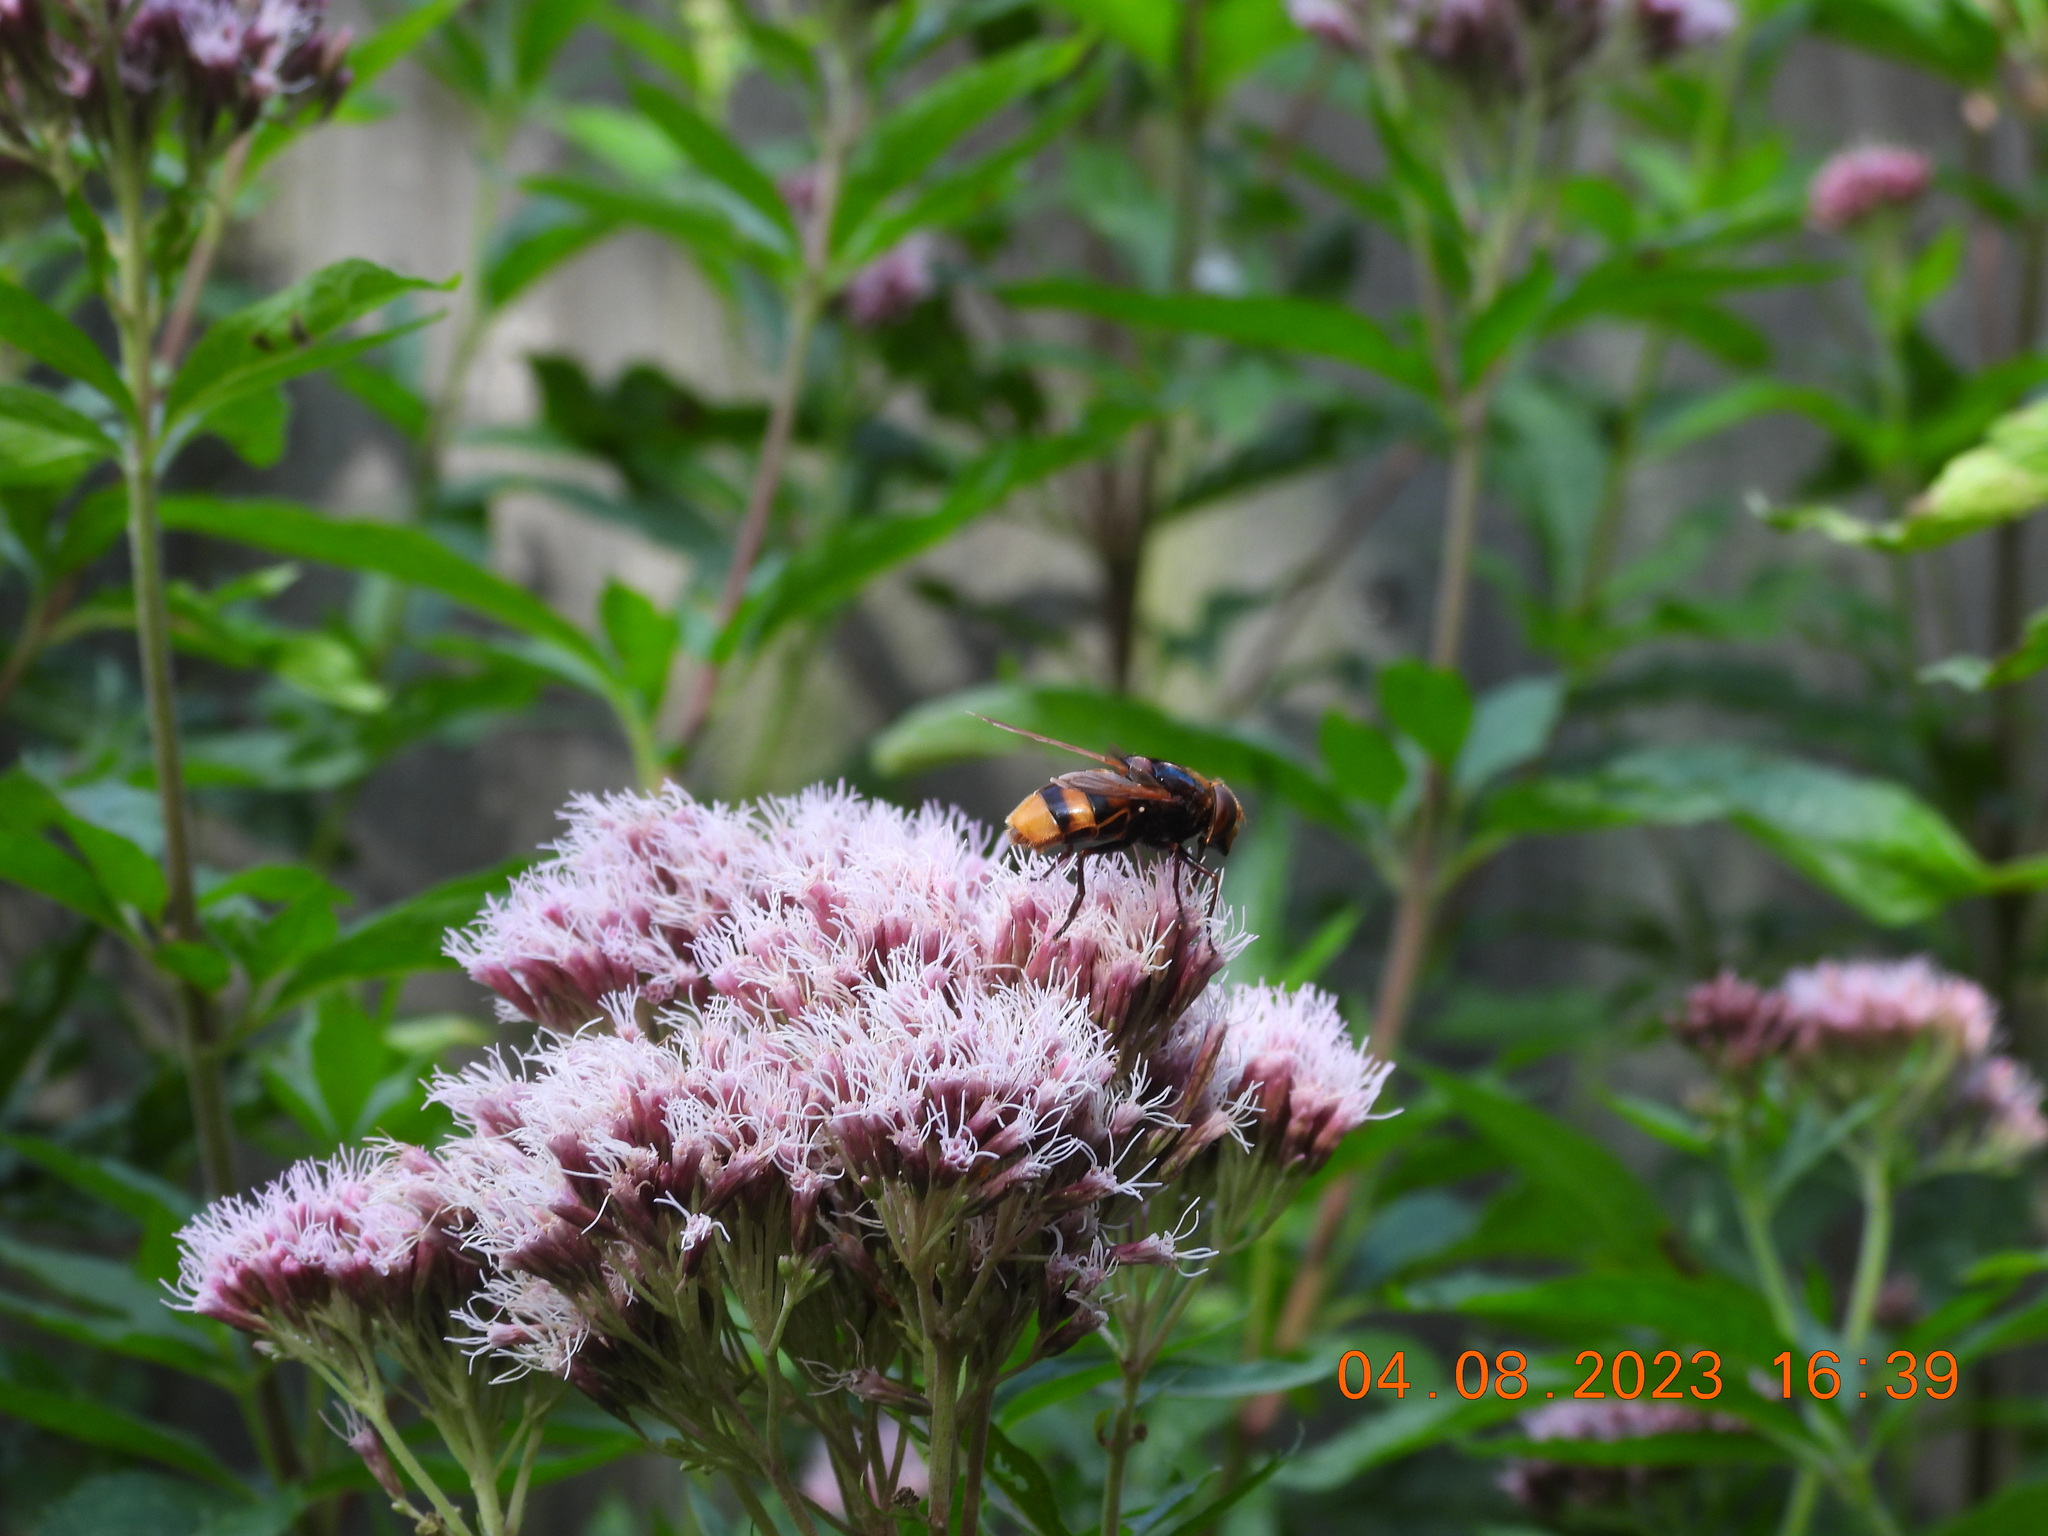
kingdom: Animalia
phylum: Arthropoda
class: Insecta
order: Diptera
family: Syrphidae
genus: Volucella
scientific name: Volucella zonaria
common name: Hornet hoverfly
